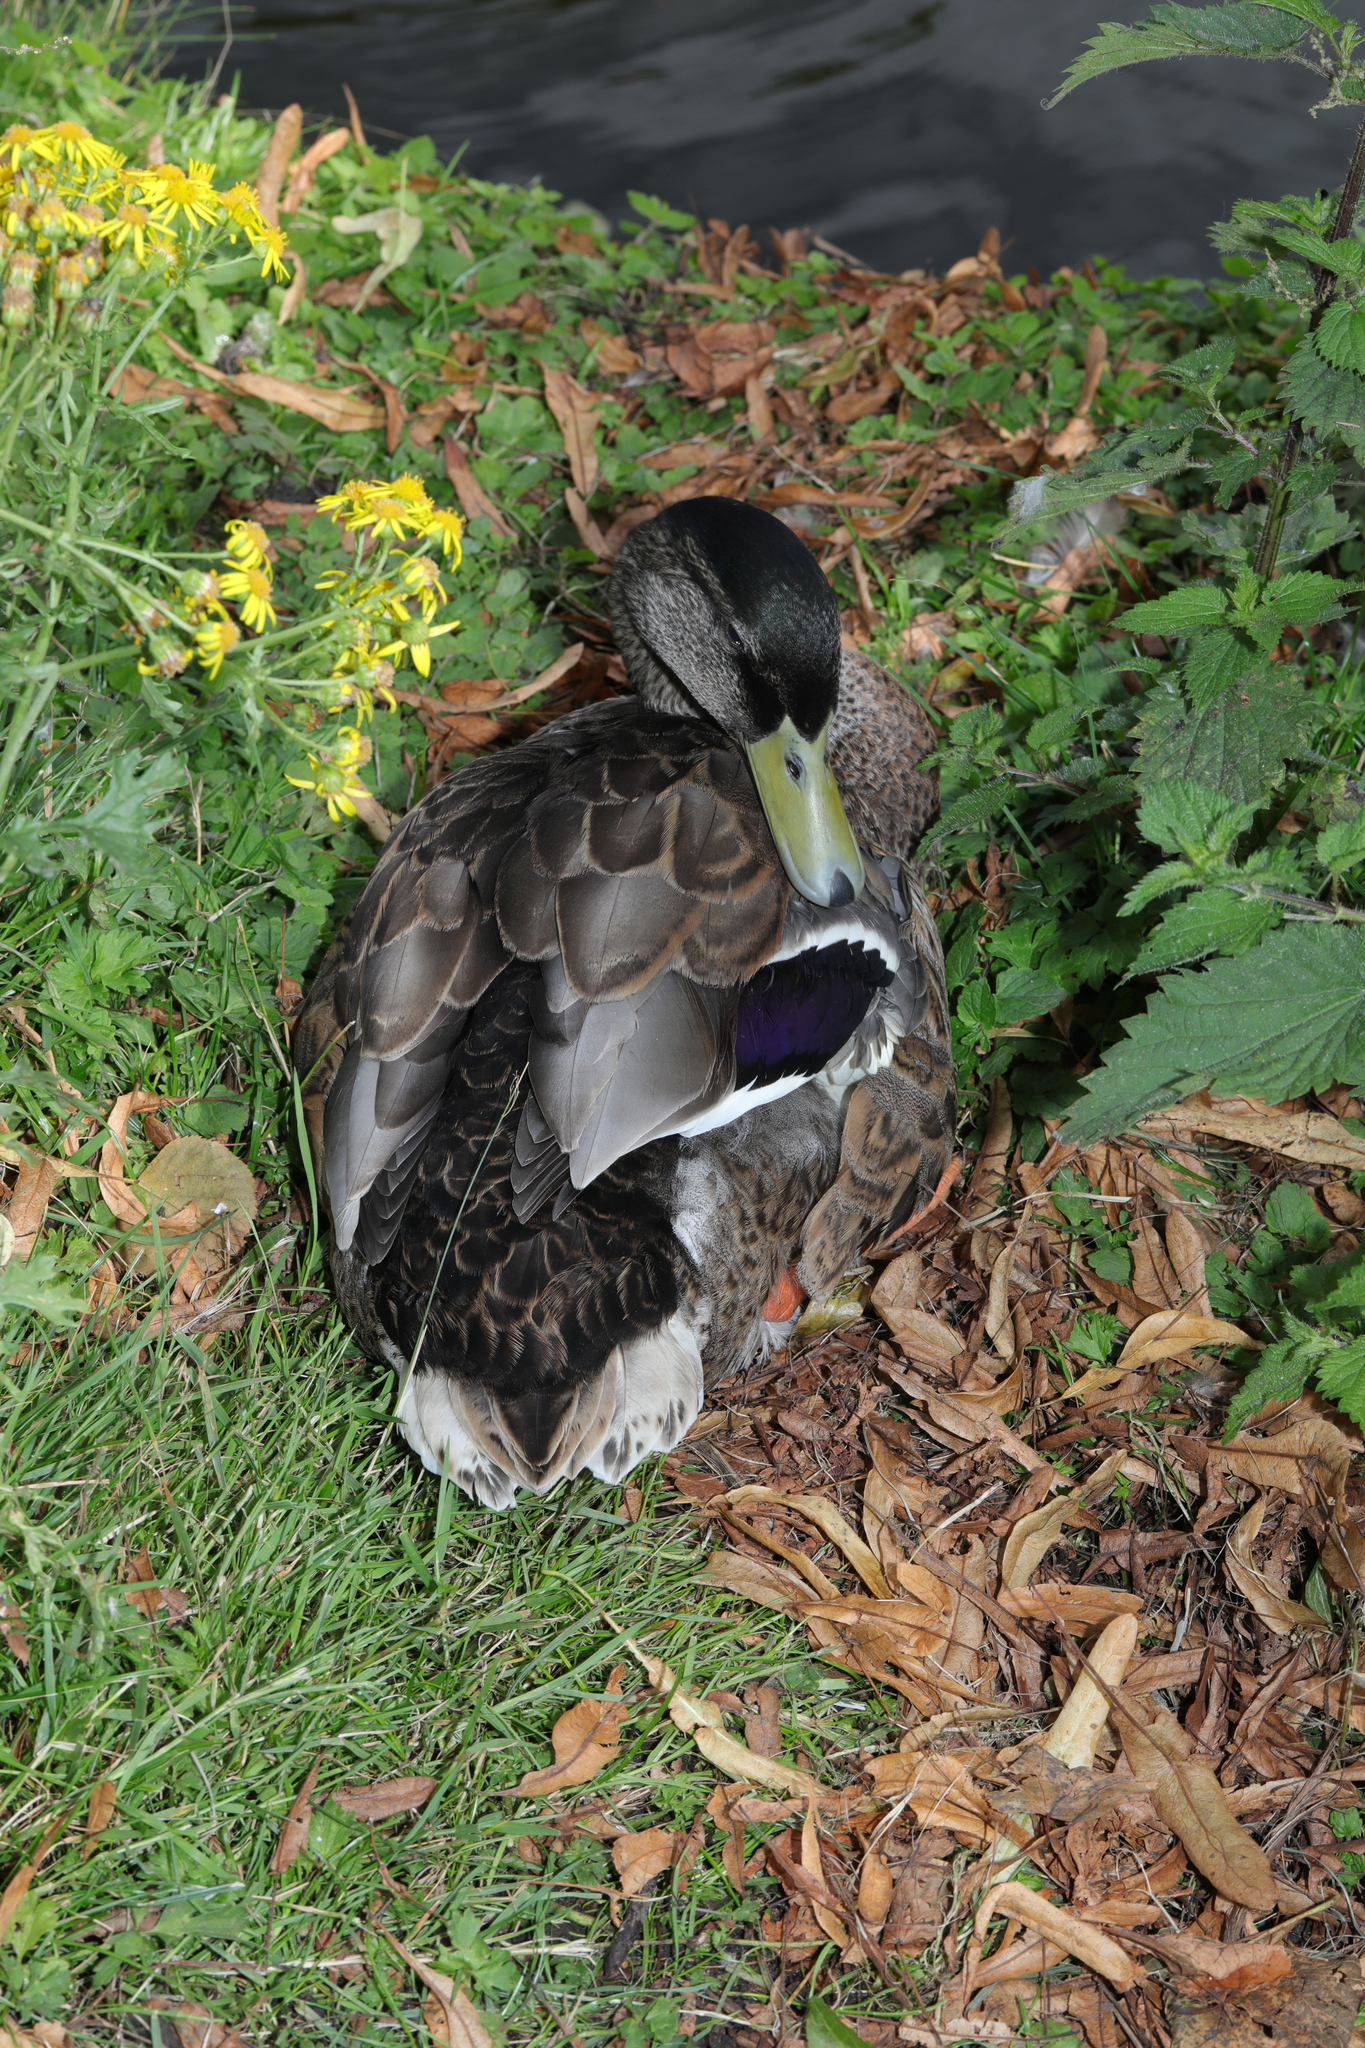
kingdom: Animalia
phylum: Chordata
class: Aves
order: Anseriformes
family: Anatidae
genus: Anas
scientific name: Anas platyrhynchos
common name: Mallard
